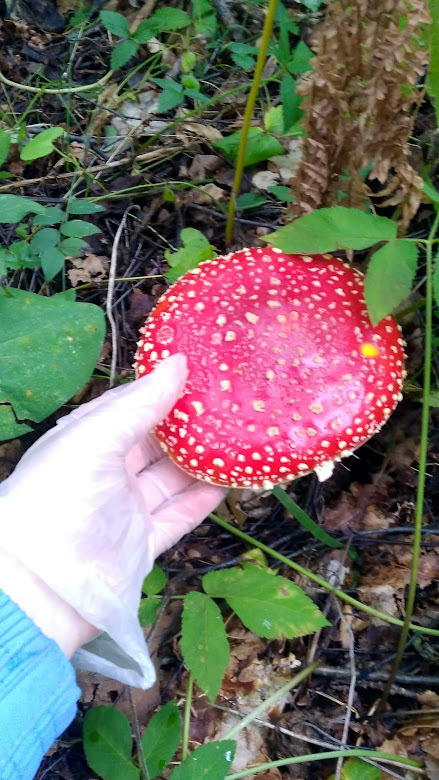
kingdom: Fungi
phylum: Basidiomycota
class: Agaricomycetes
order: Agaricales
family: Amanitaceae
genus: Amanita
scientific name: Amanita muscaria
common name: Fly agaric
